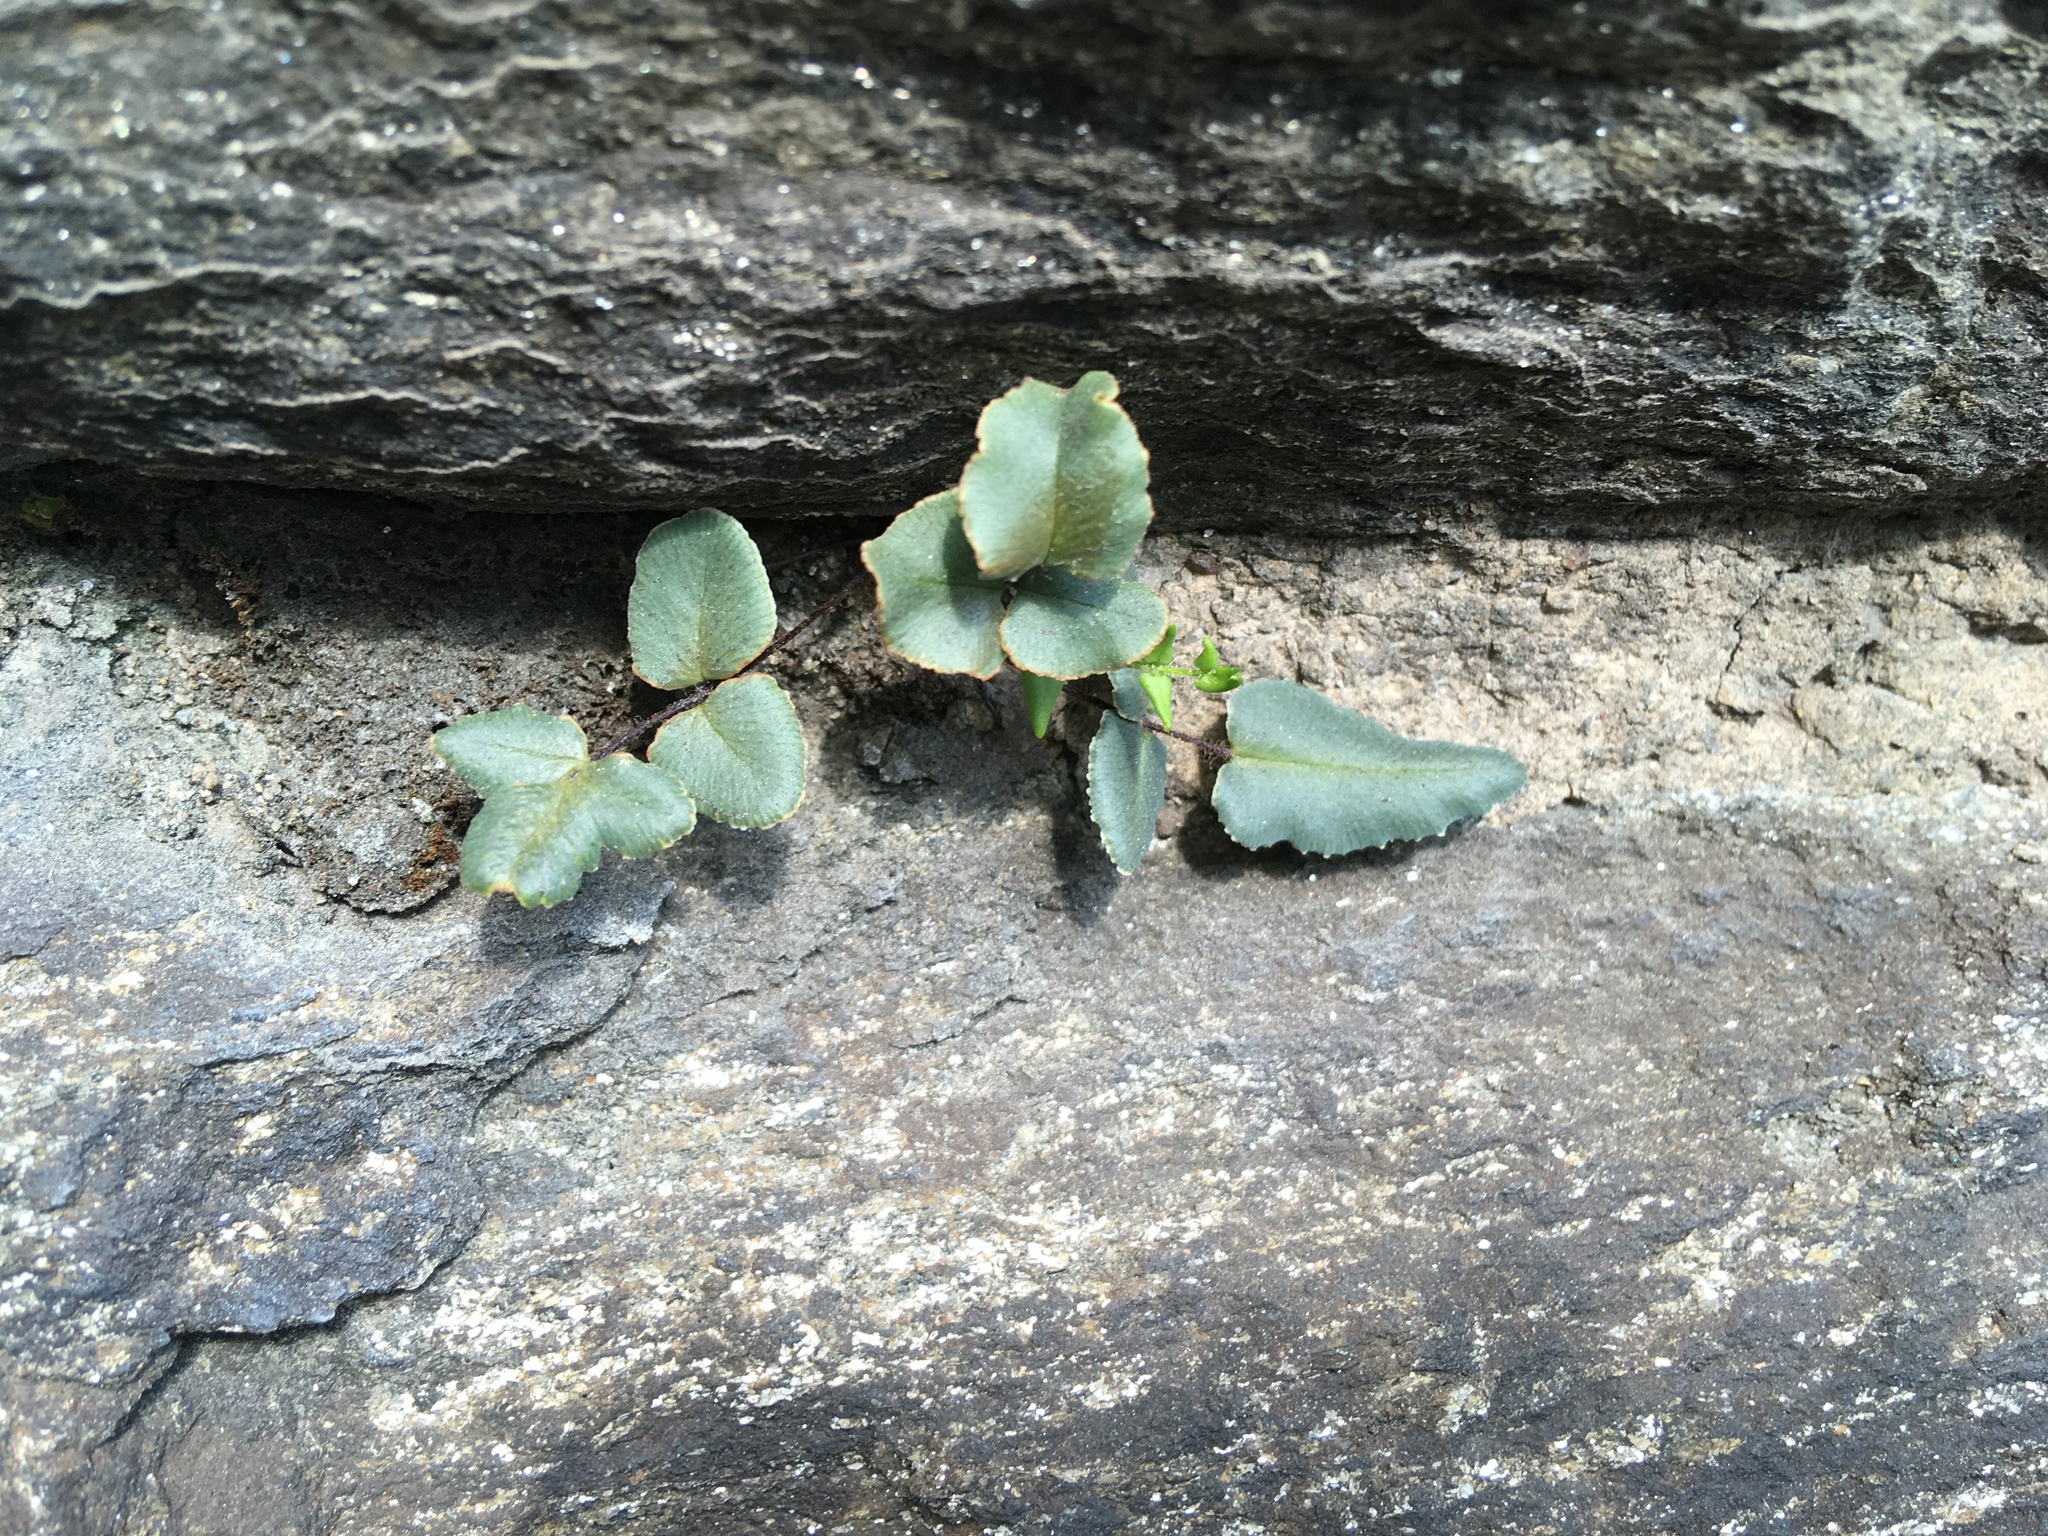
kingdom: Plantae
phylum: Tracheophyta
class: Polypodiopsida
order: Polypodiales
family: Pteridaceae
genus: Pellaea
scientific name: Pellaea atropurpurea
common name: Hairy cliffbrake
